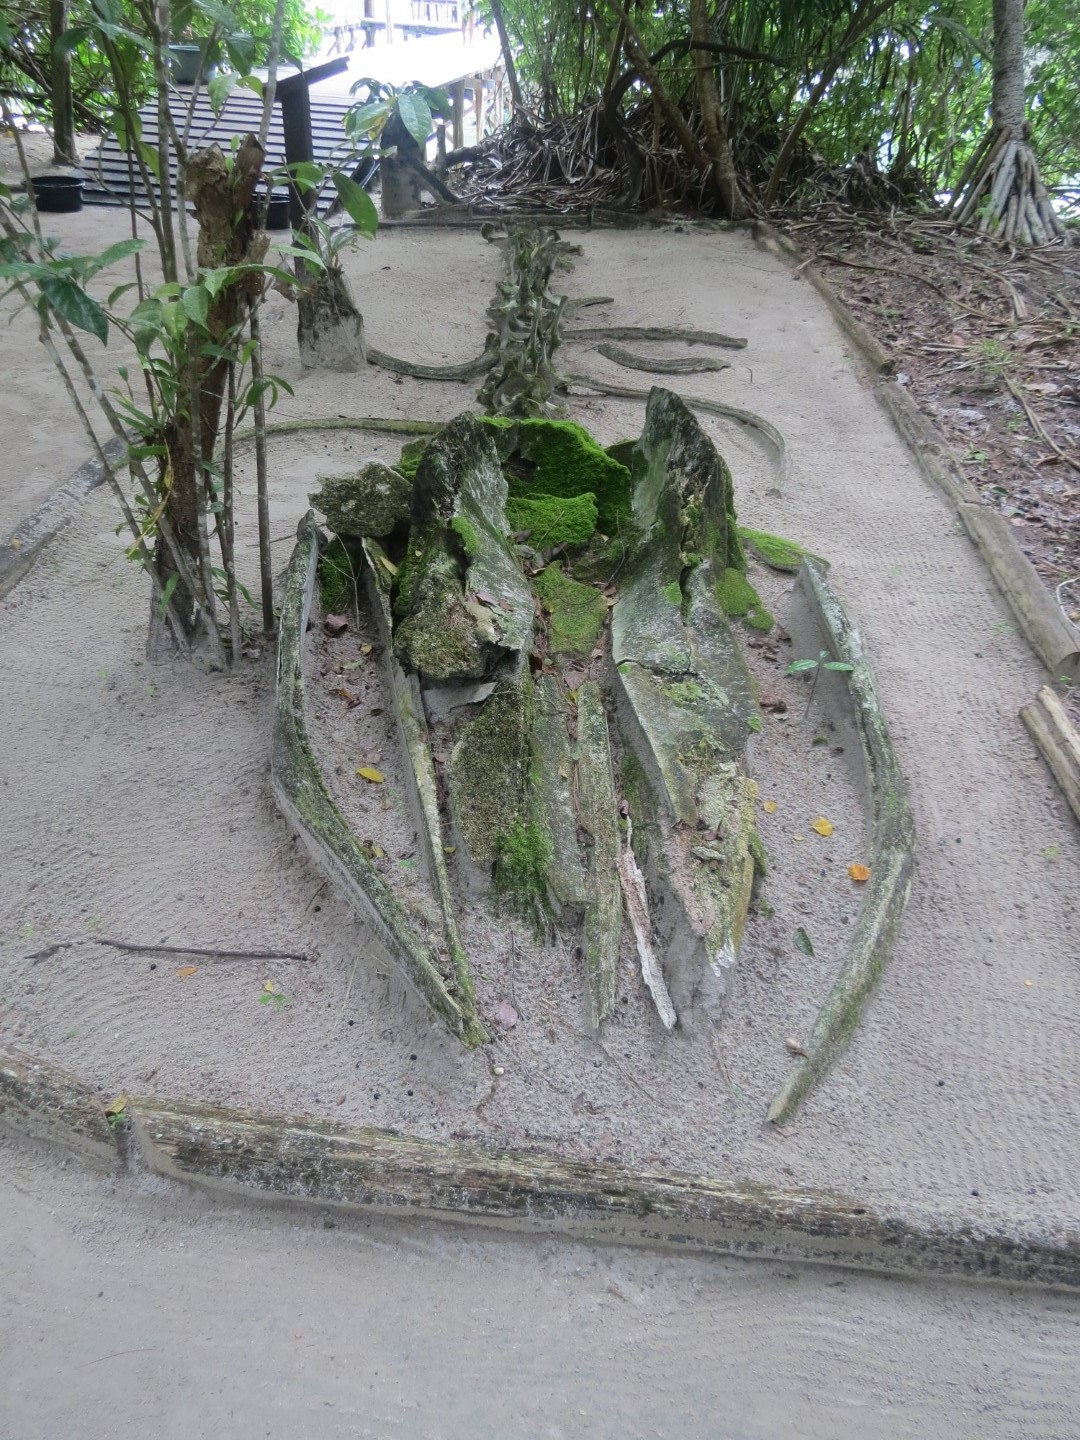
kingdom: Animalia
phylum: Chordata
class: Mammalia
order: Cetacea
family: Physeteridae
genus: Physeter
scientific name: Physeter macrocephalus
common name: Sperm whale
